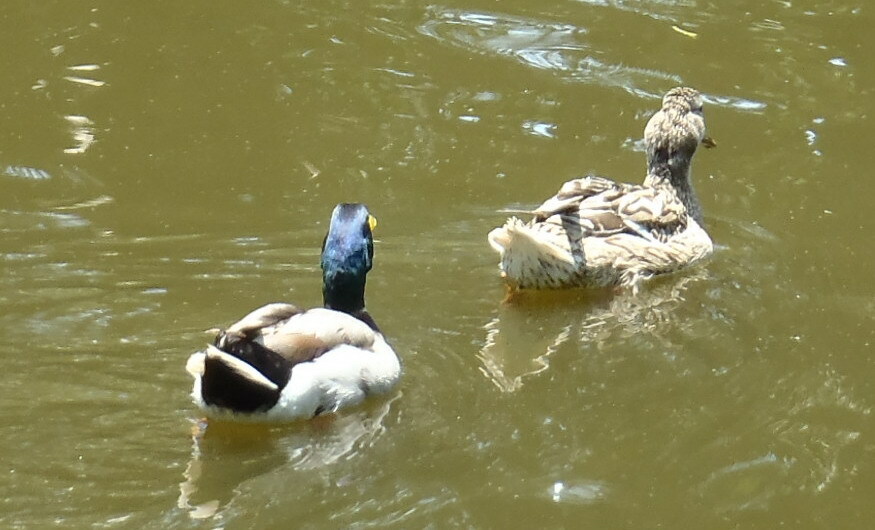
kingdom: Animalia
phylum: Chordata
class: Aves
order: Anseriformes
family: Anatidae
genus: Anas
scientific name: Anas platyrhynchos
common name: Mallard
